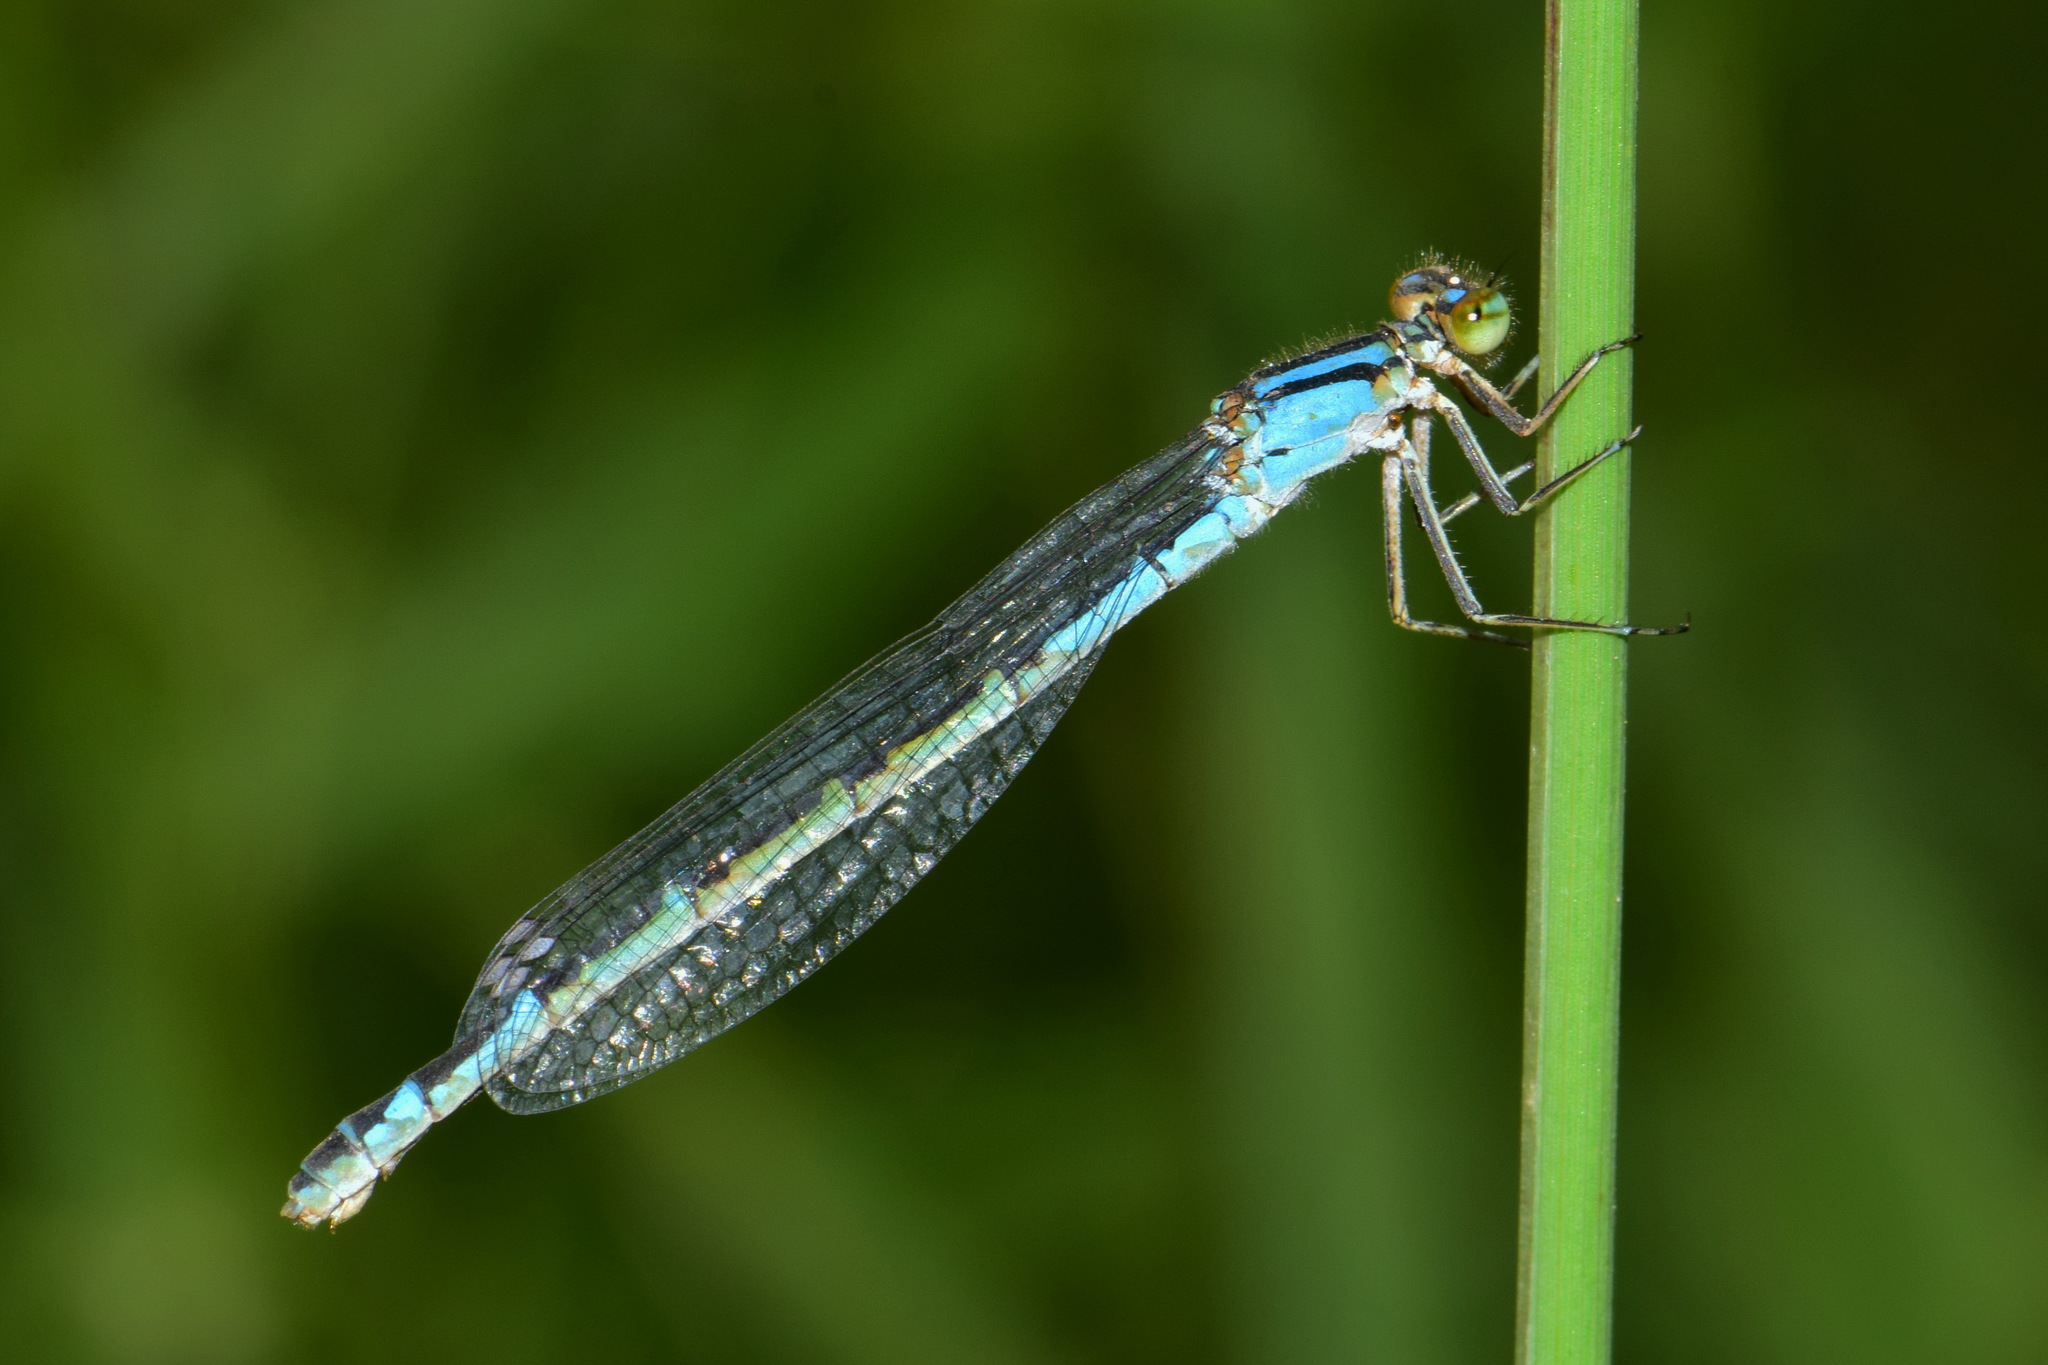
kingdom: Animalia
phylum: Arthropoda
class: Insecta
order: Odonata
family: Coenagrionidae
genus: Enallagma
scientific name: Enallagma cyathigerum
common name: Common blue damselfly
